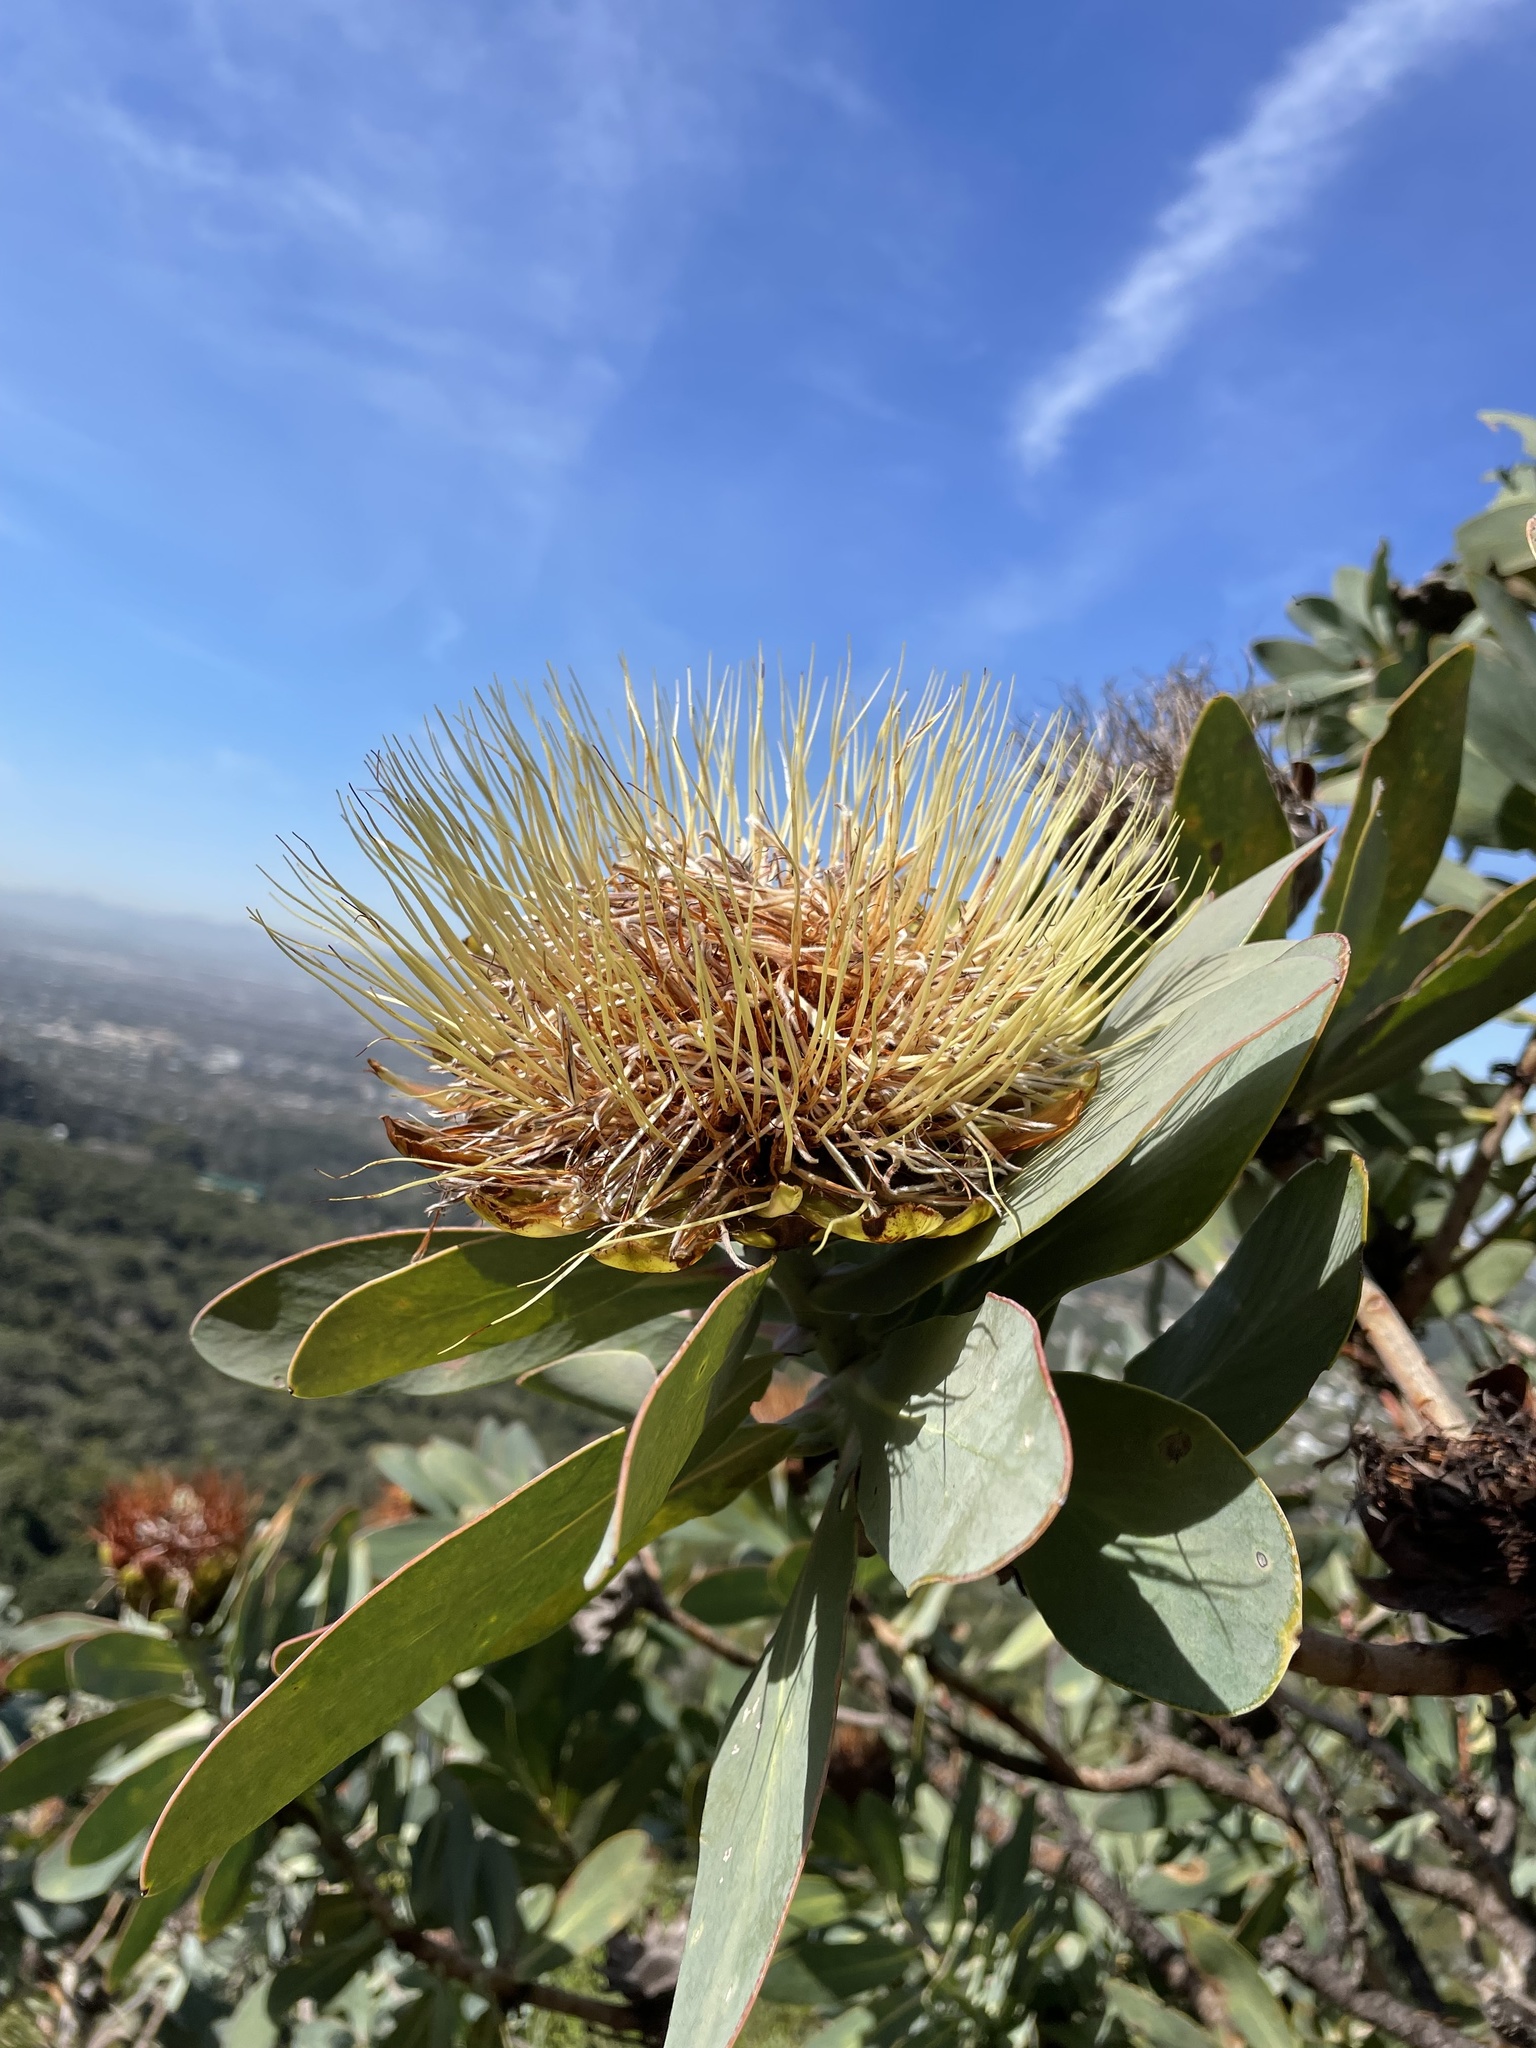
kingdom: Plantae
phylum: Tracheophyta
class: Magnoliopsida
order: Proteales
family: Proteaceae
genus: Protea
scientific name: Protea nitida
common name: Tree protea
